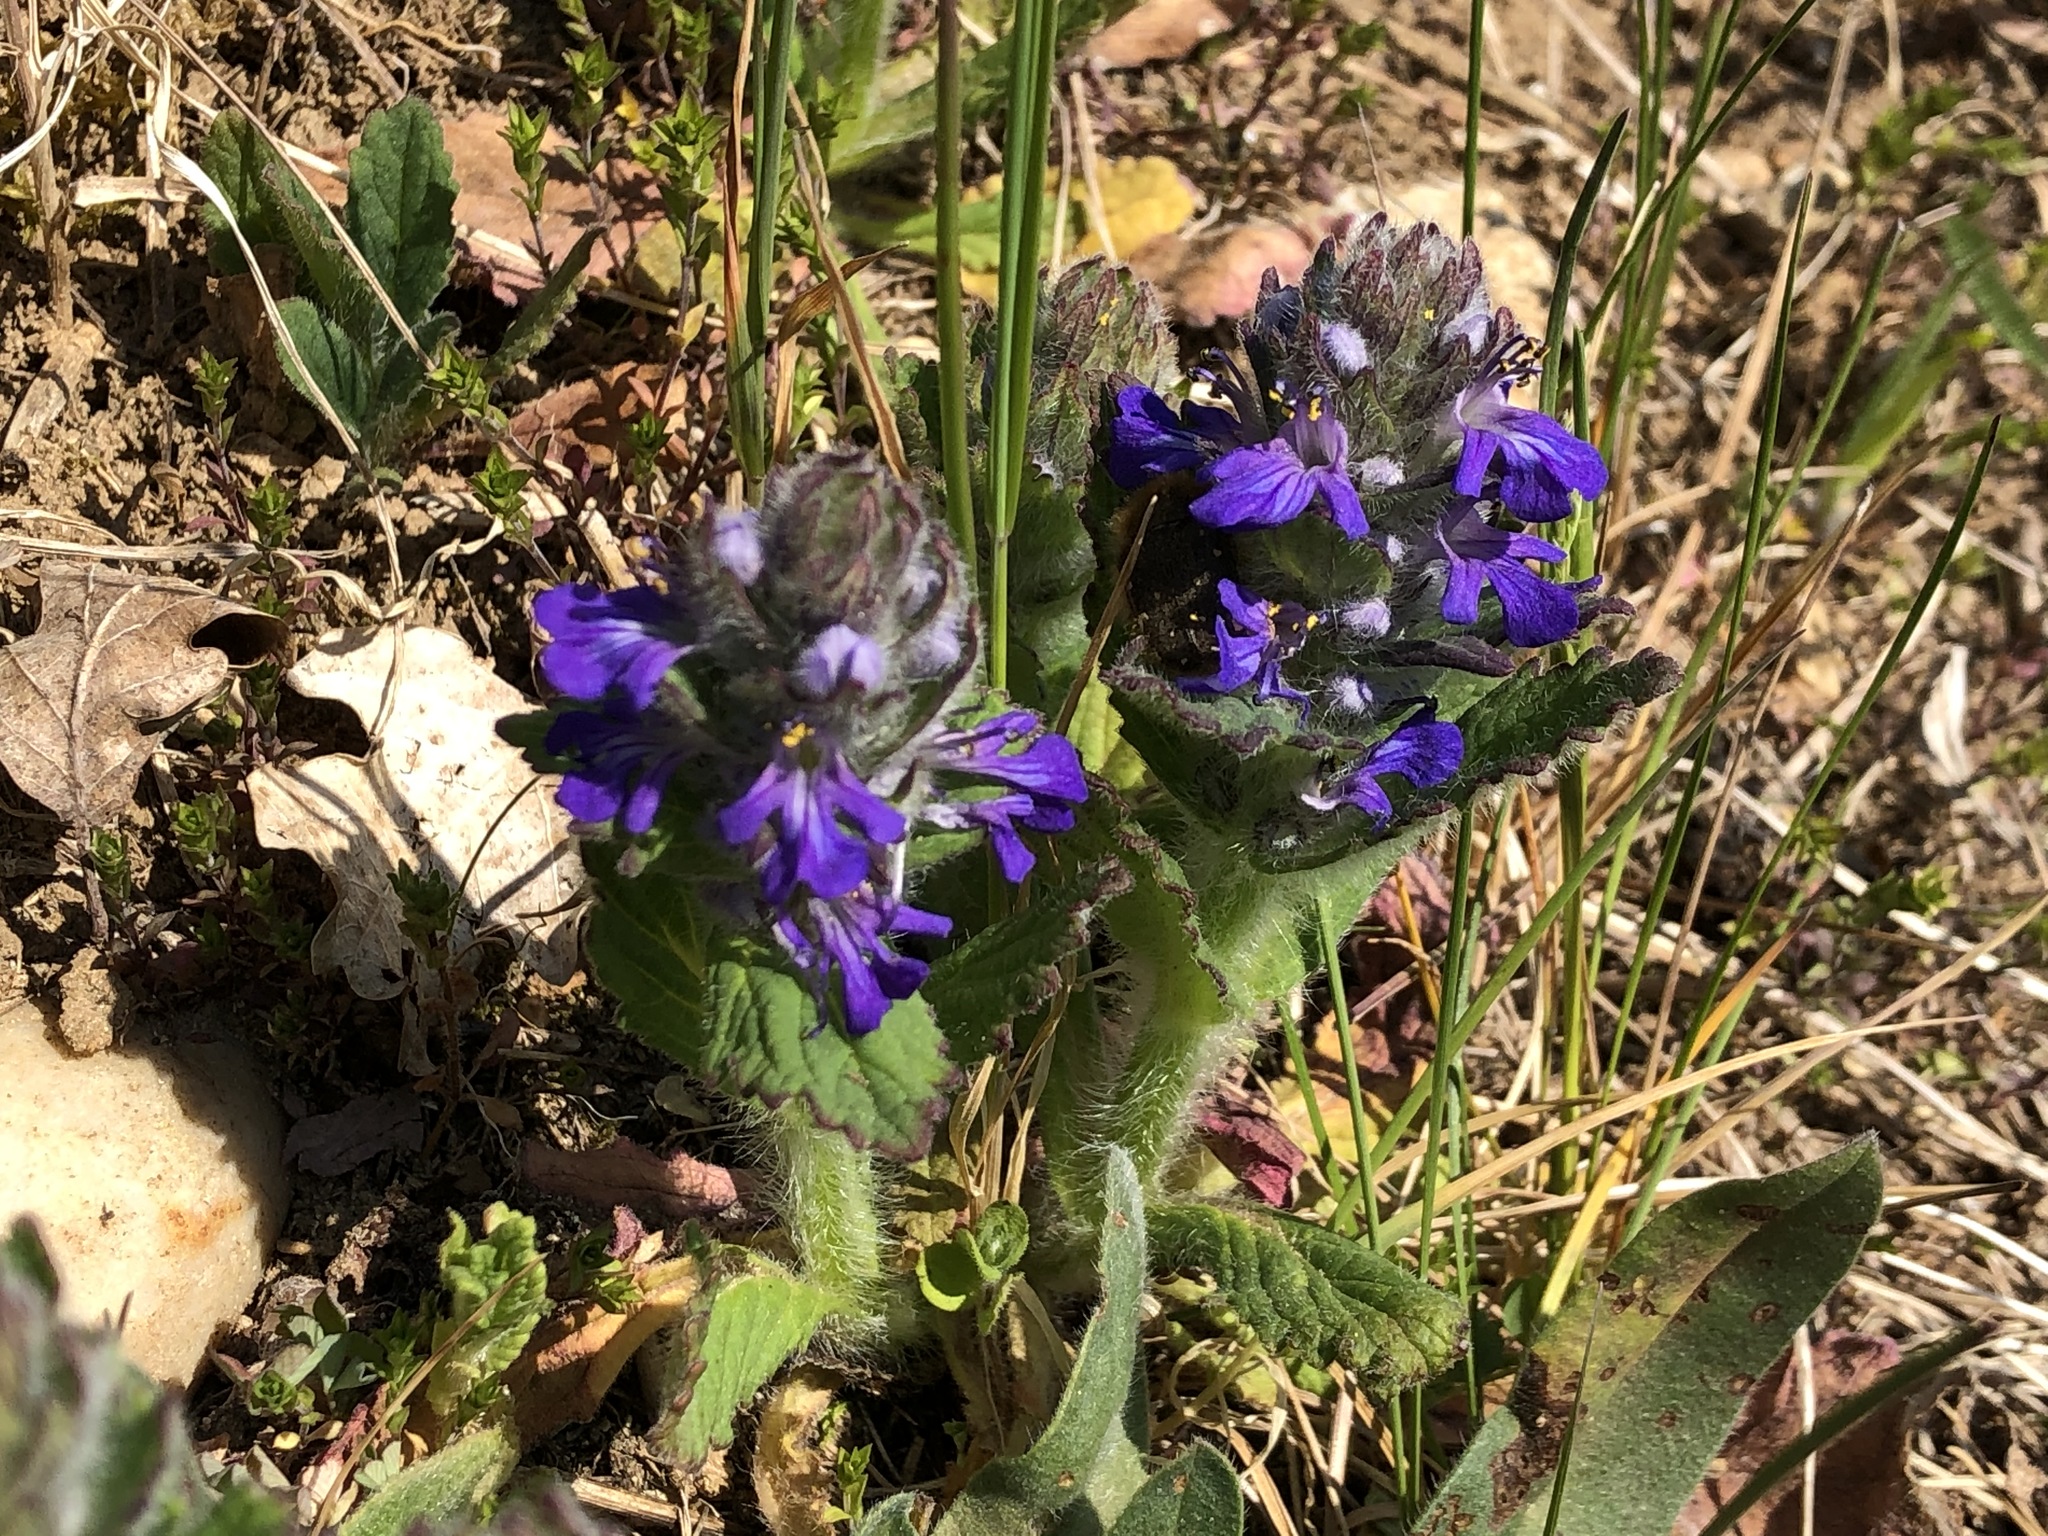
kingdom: Plantae
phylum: Tracheophyta
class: Magnoliopsida
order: Lamiales
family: Lamiaceae
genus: Ajuga
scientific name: Ajuga genevensis
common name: Blue bugle
